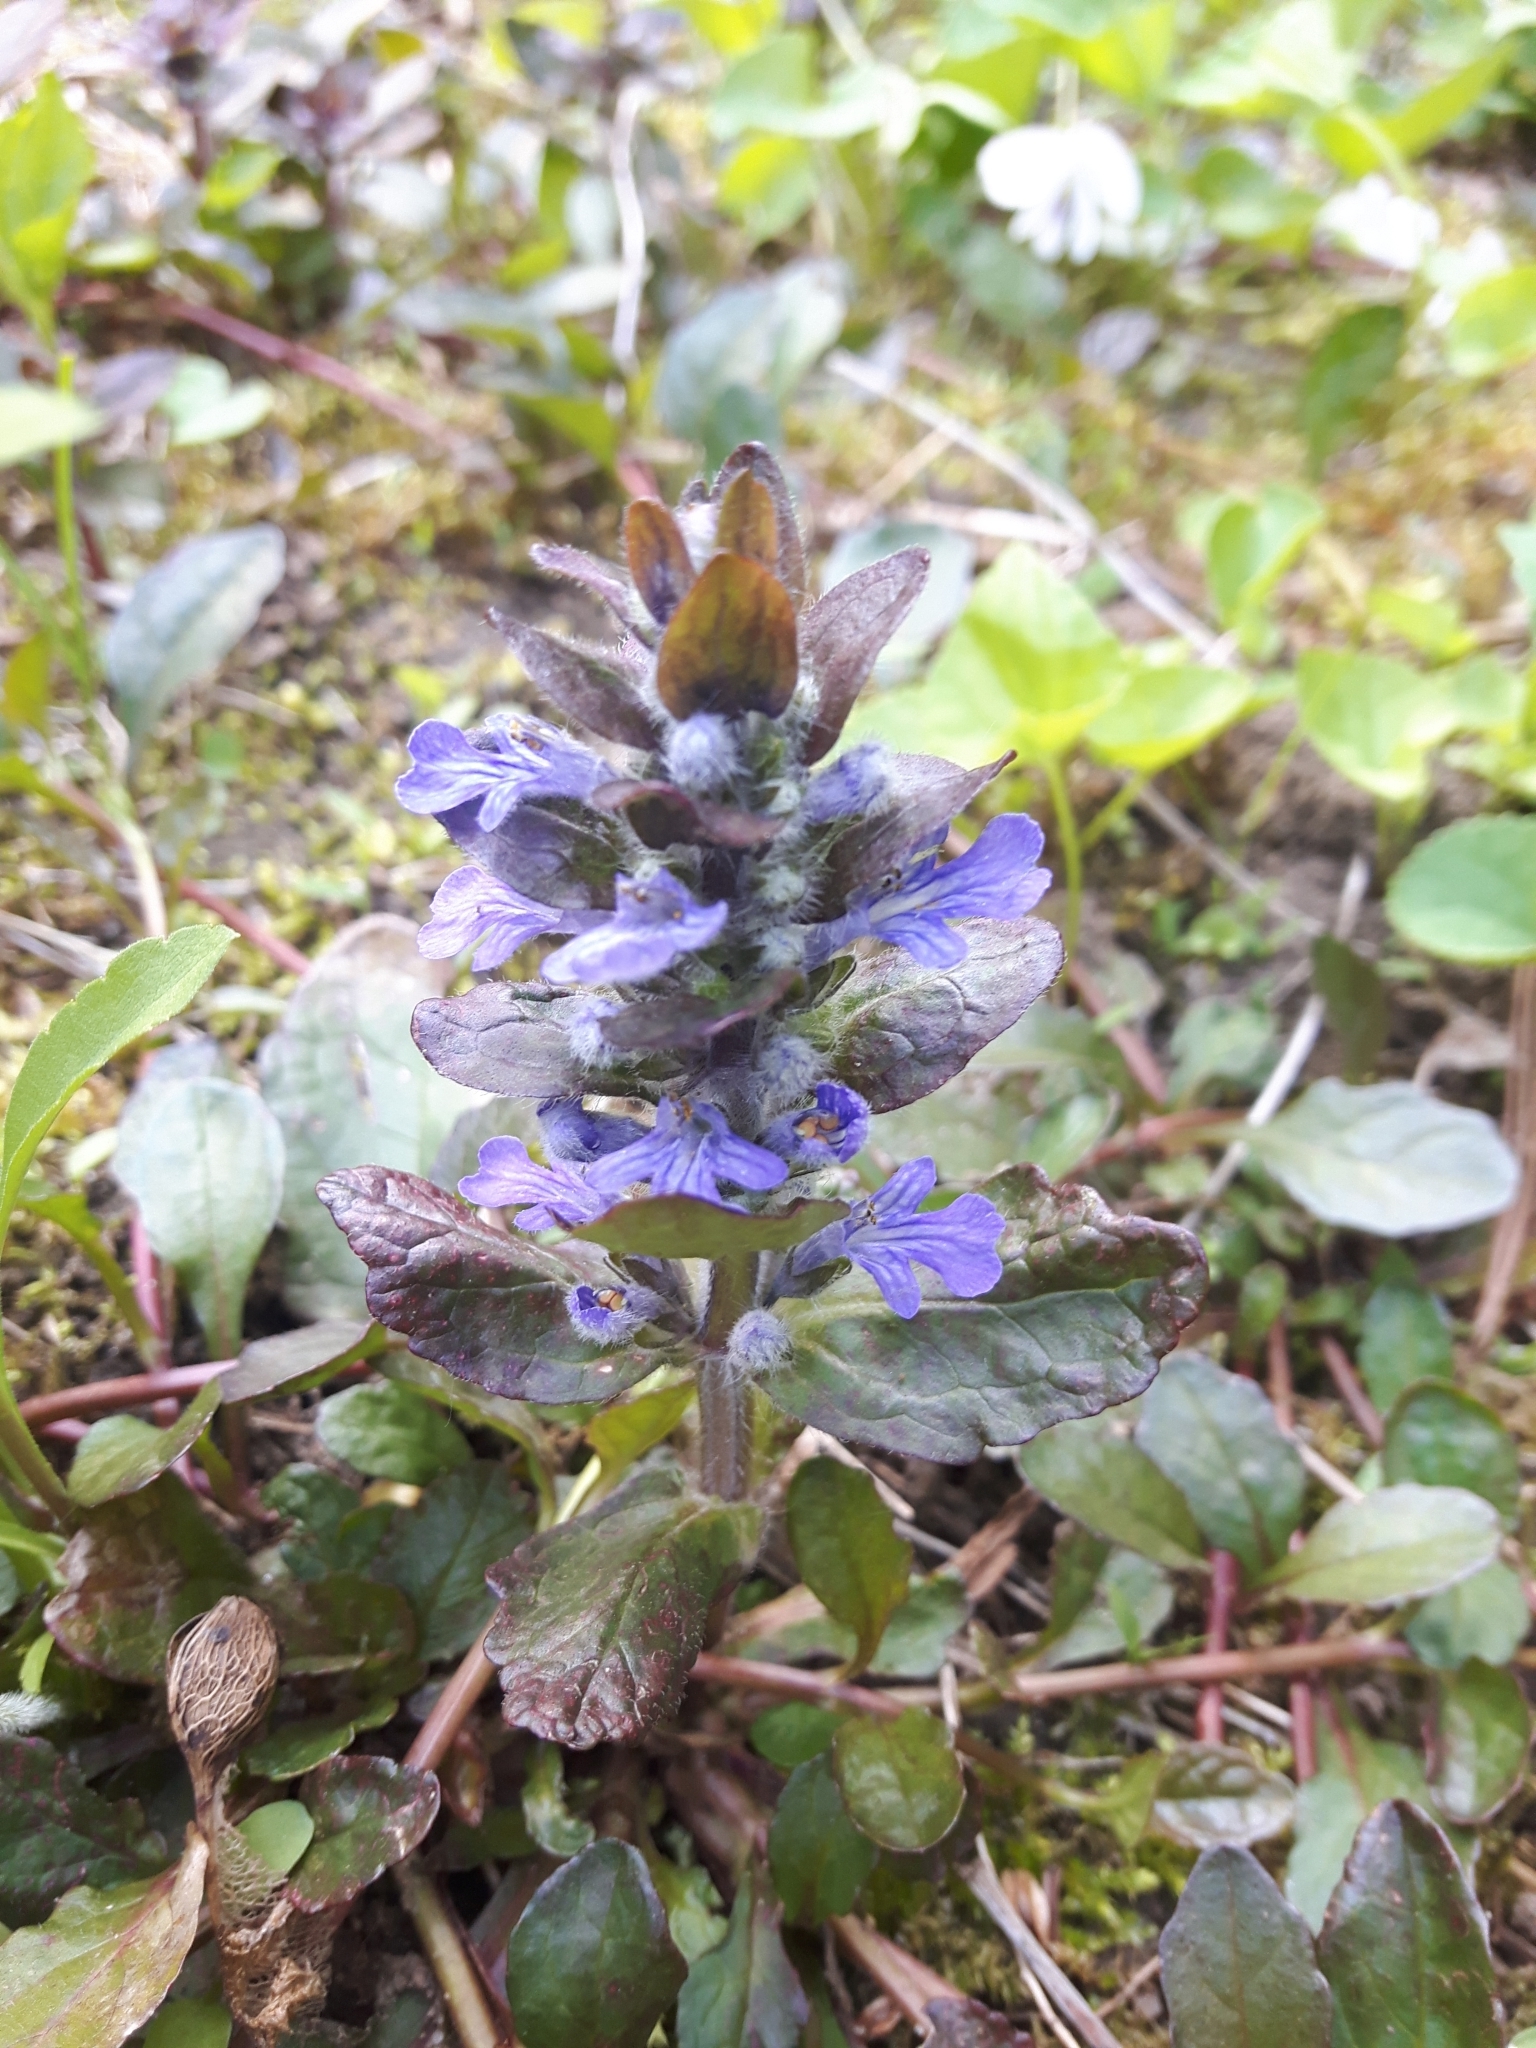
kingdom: Plantae
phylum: Tracheophyta
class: Magnoliopsida
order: Lamiales
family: Lamiaceae
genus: Ajuga
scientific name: Ajuga reptans
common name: Bugle
